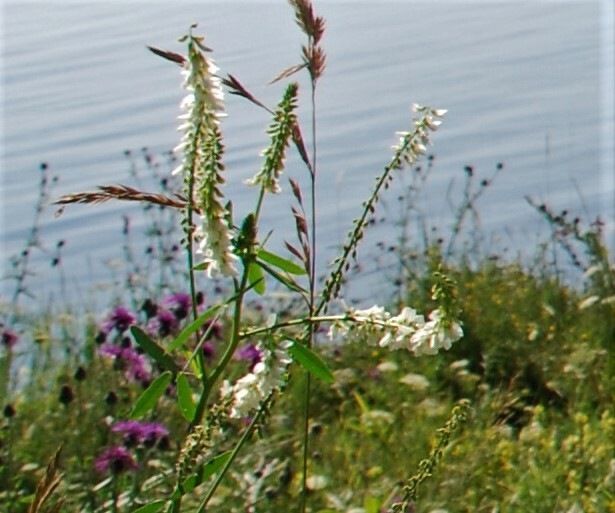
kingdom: Plantae
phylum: Tracheophyta
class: Magnoliopsida
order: Fabales
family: Fabaceae
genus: Melilotus
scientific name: Melilotus albus
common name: White melilot
